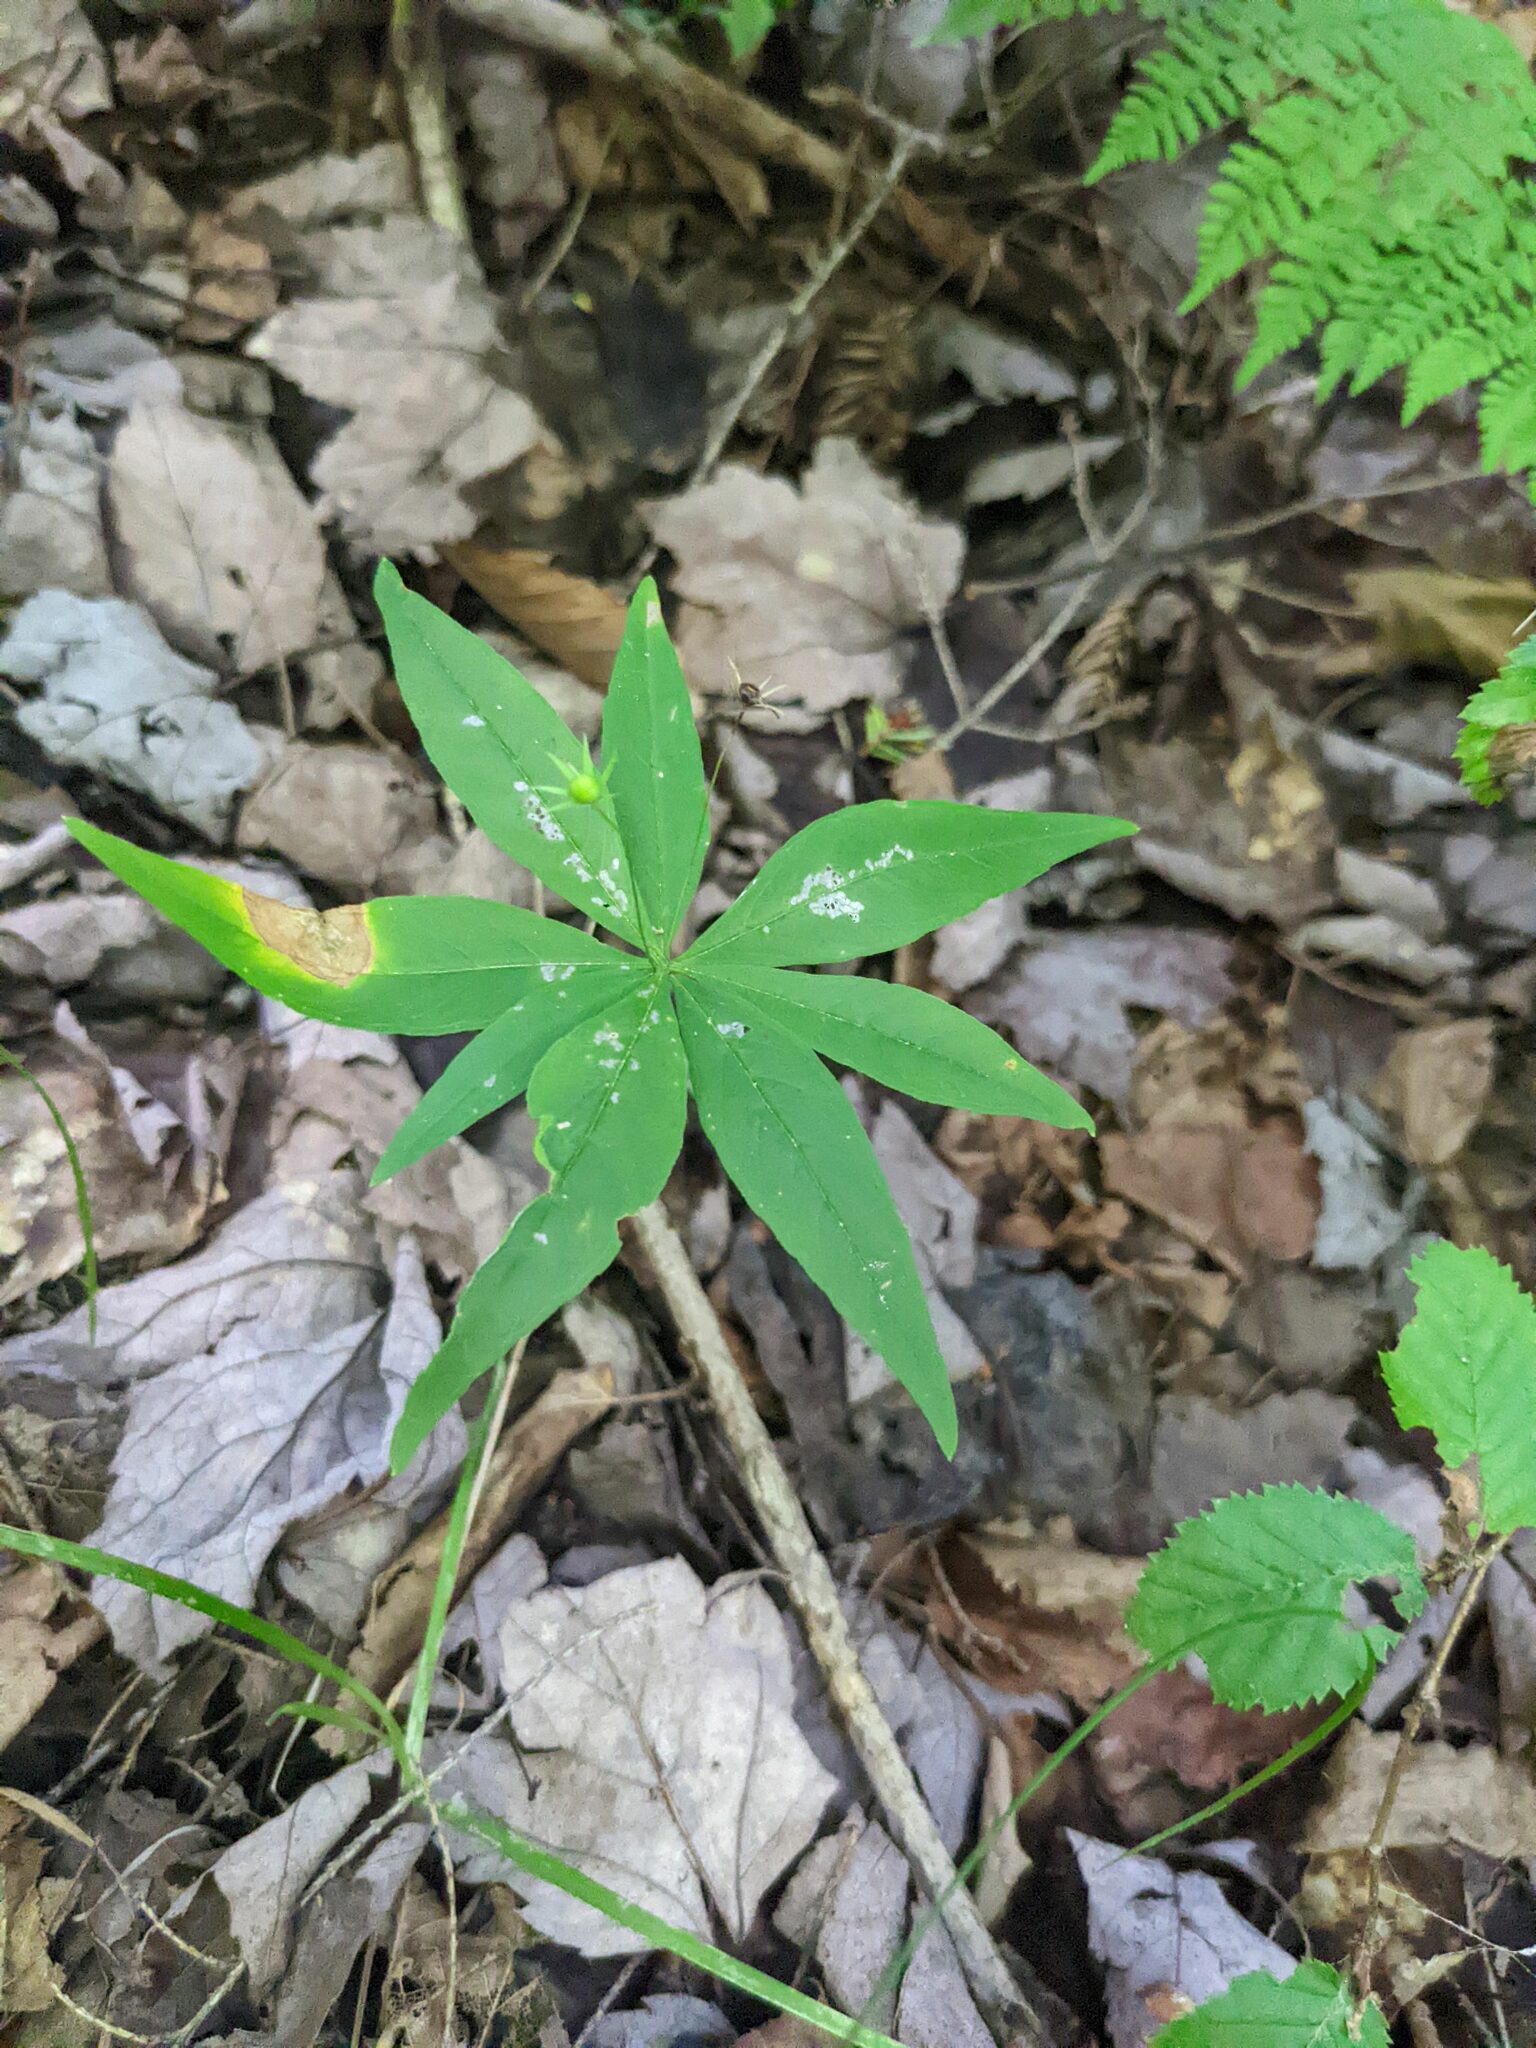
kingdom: Plantae
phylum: Tracheophyta
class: Magnoliopsida
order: Ericales
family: Primulaceae
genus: Lysimachia
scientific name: Lysimachia borealis
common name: American starflower
